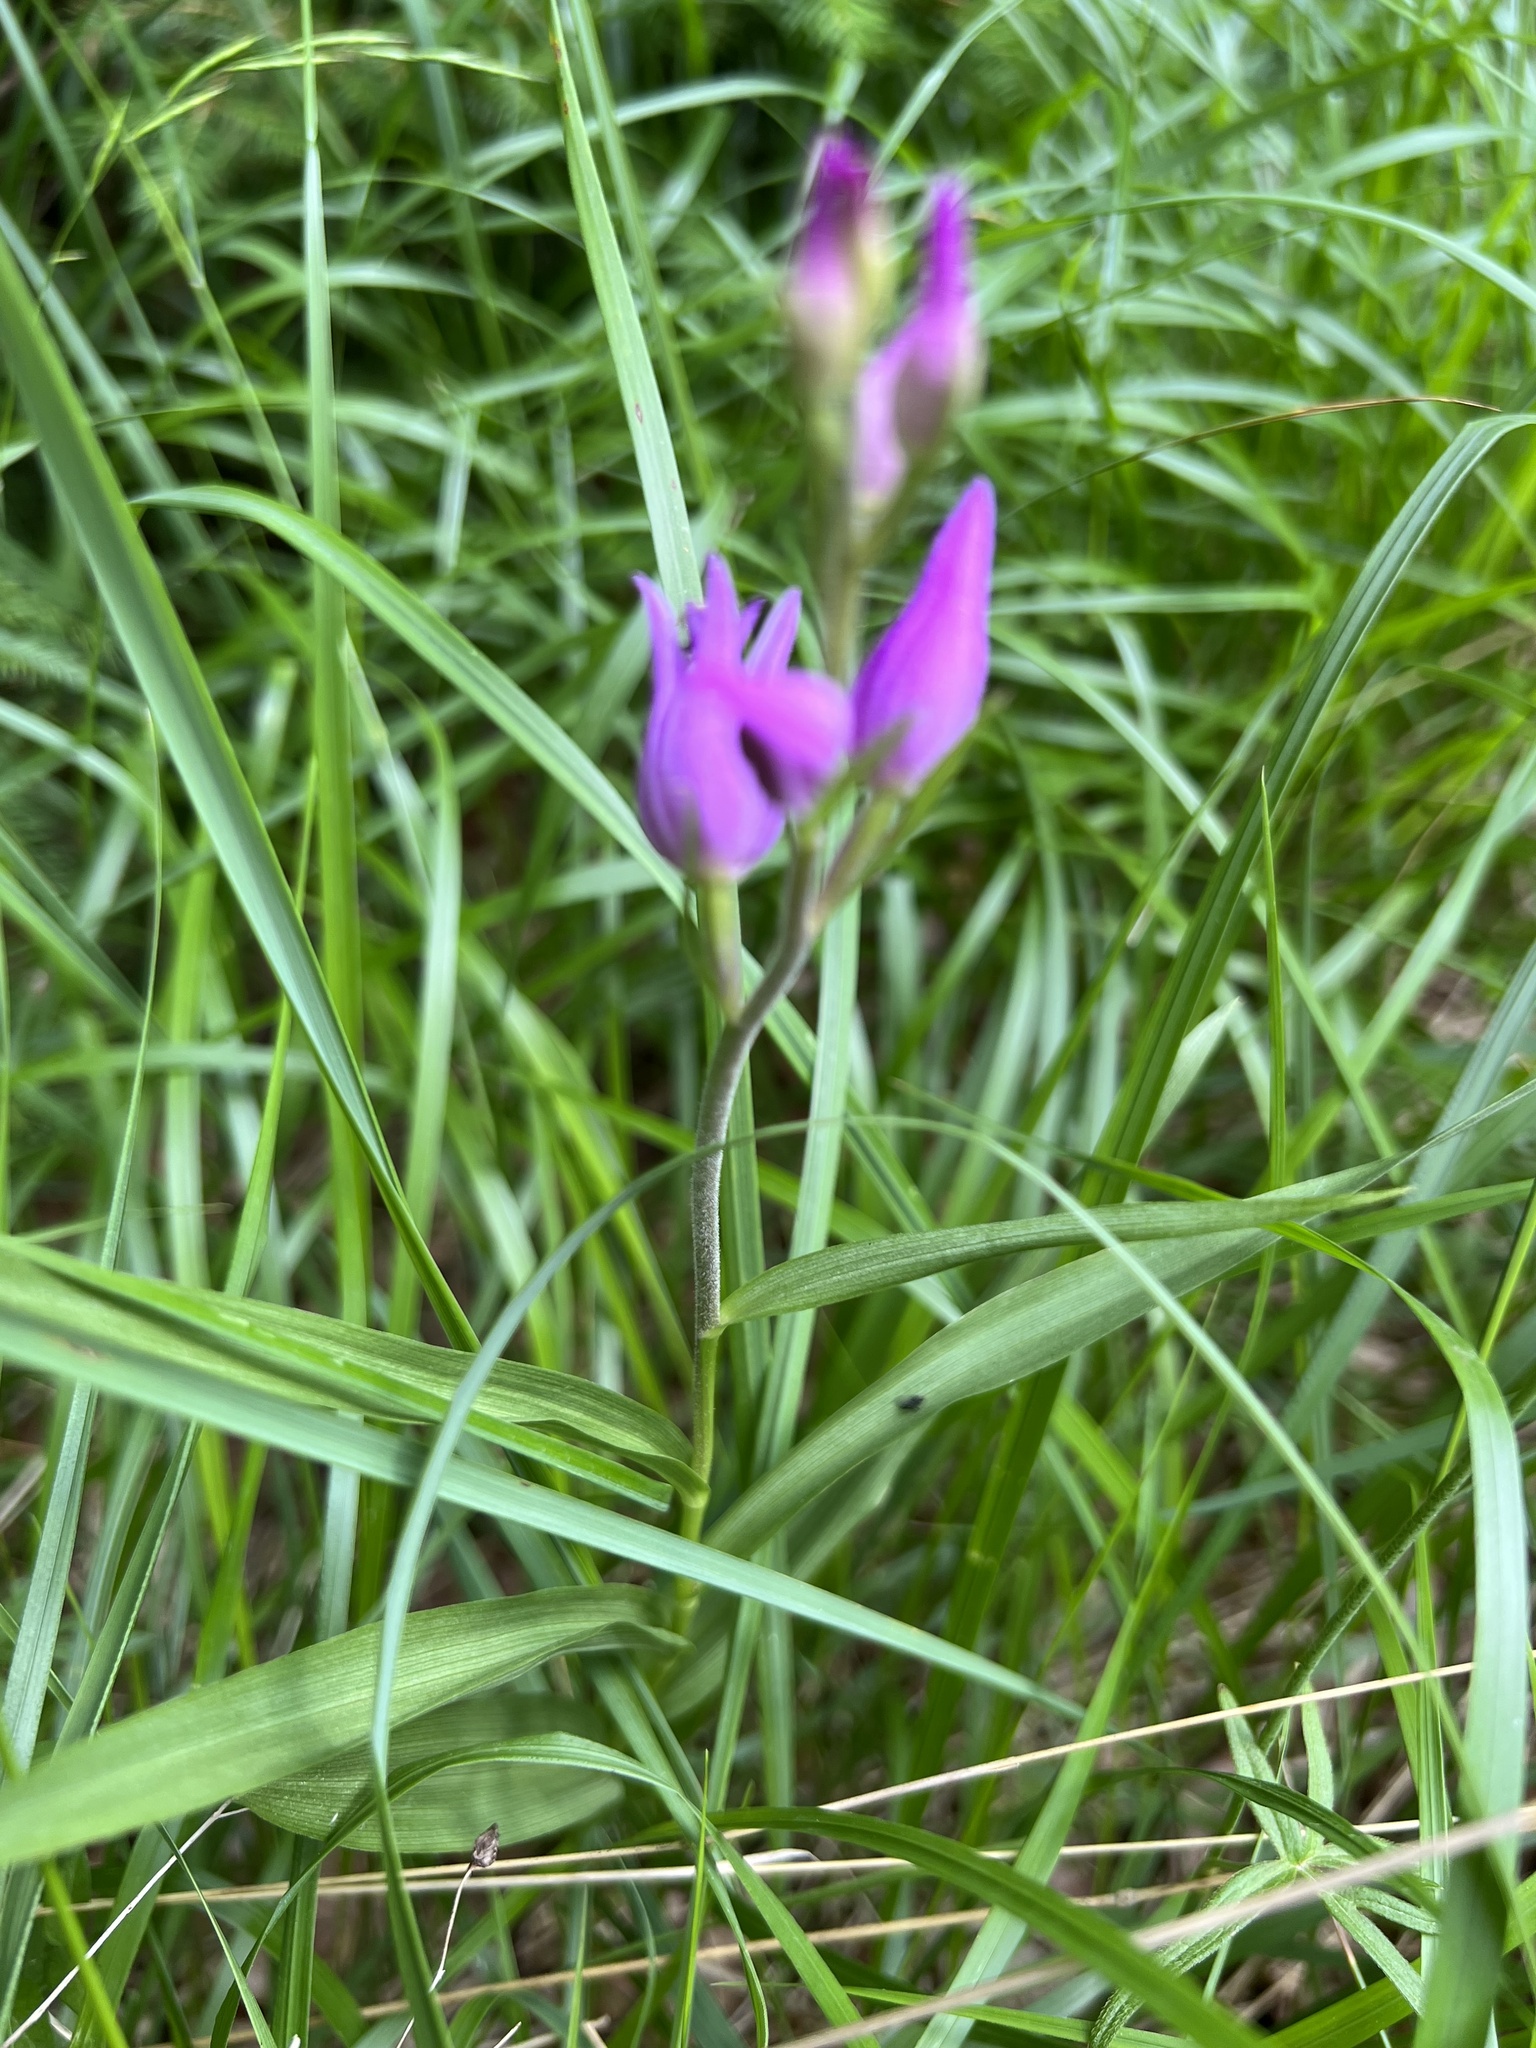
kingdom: Plantae
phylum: Tracheophyta
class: Liliopsida
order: Asparagales
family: Orchidaceae
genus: Cephalanthera
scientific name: Cephalanthera rubra
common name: Red helleborine
